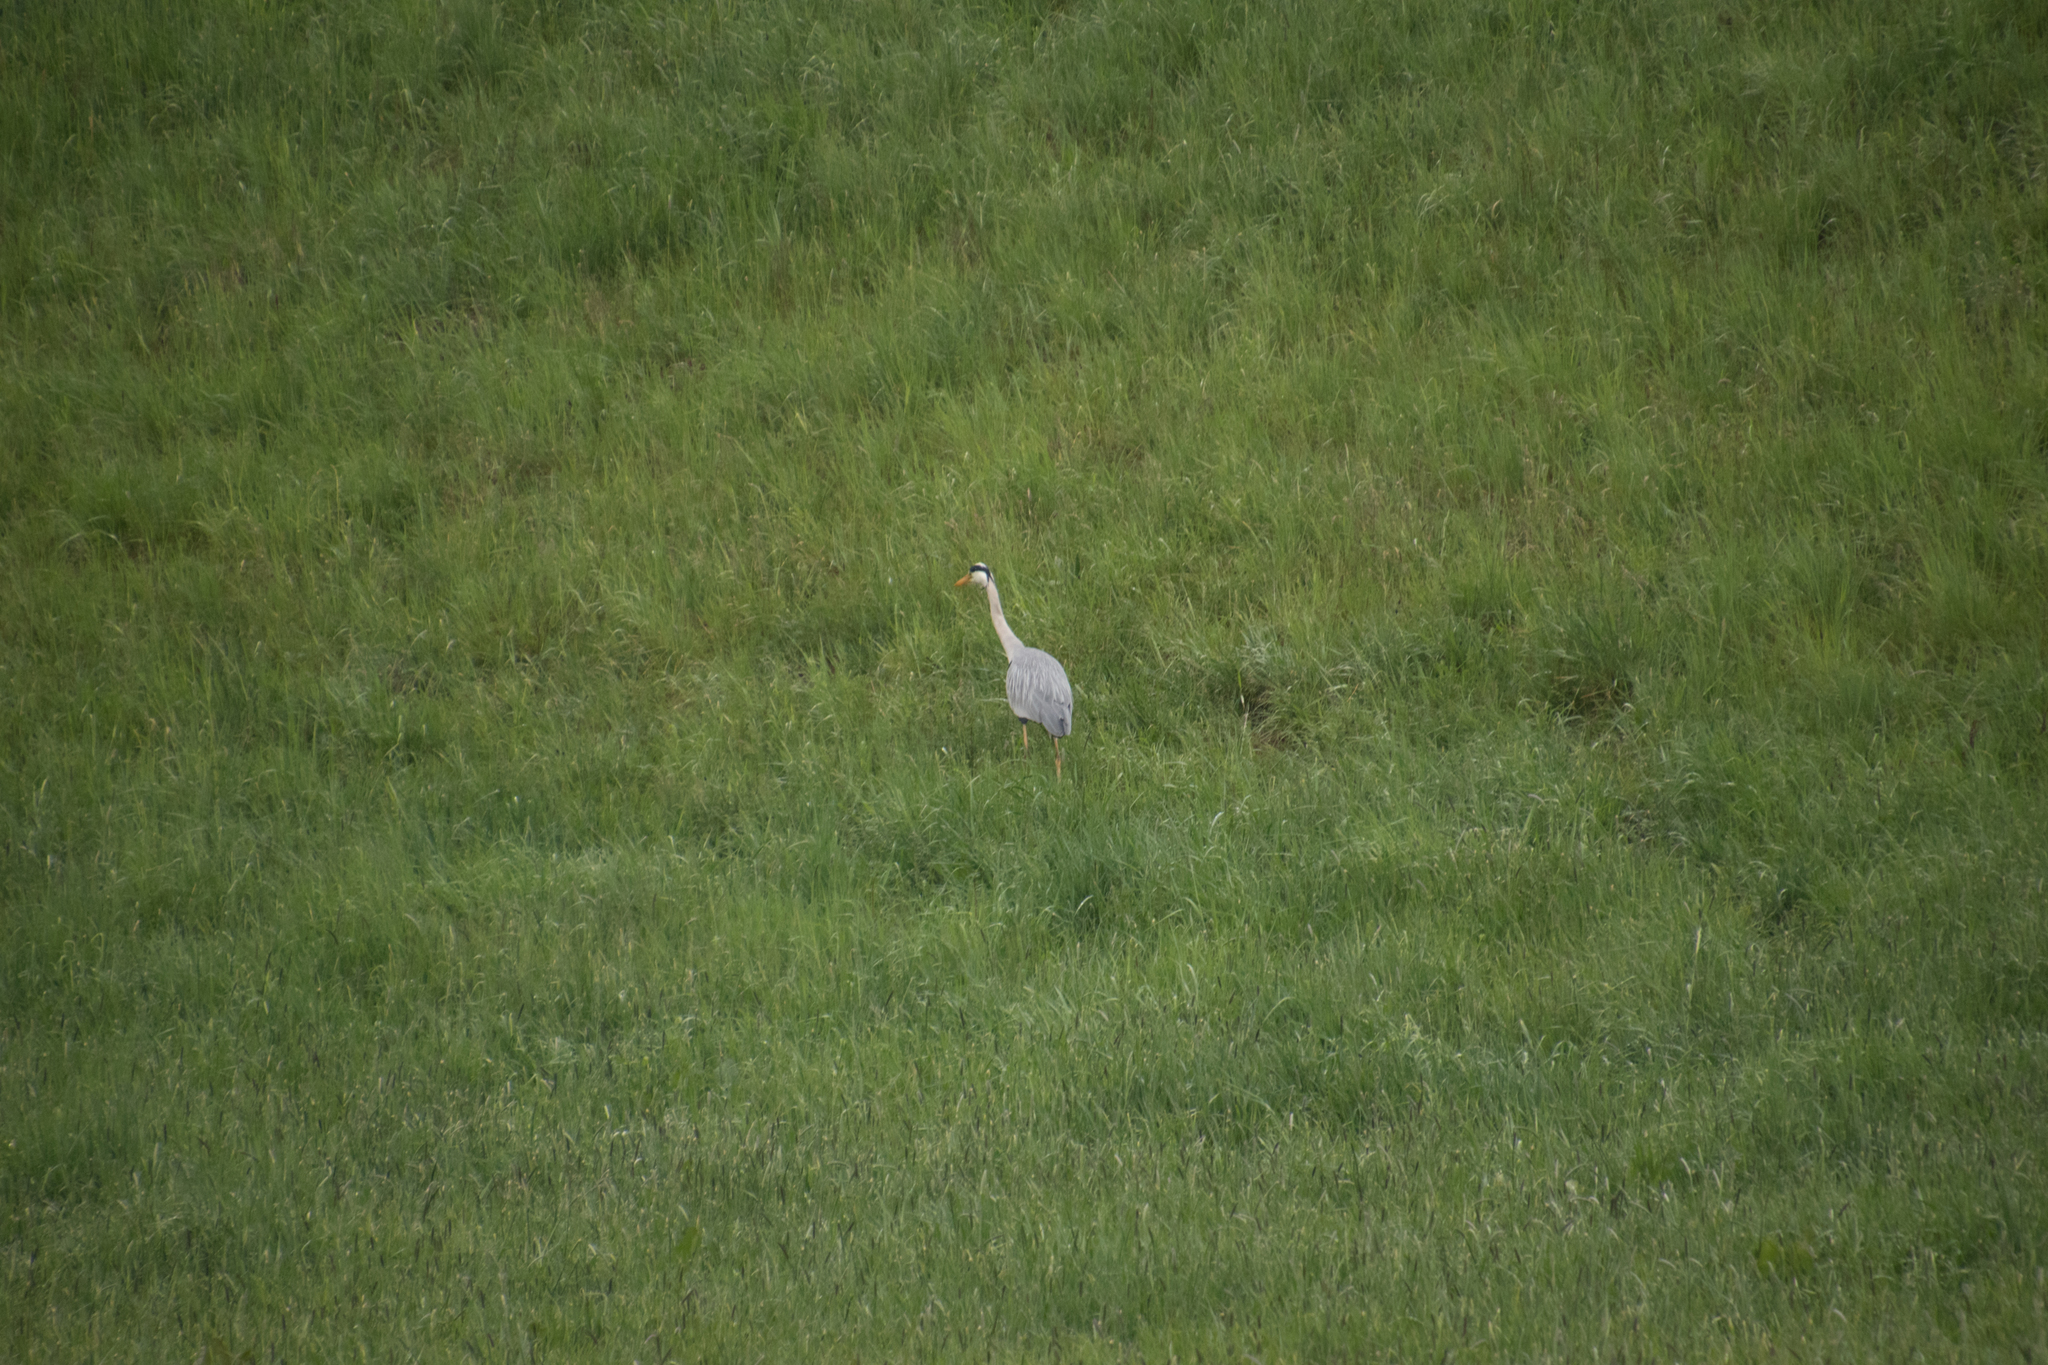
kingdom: Animalia
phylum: Chordata
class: Aves
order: Pelecaniformes
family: Ardeidae
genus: Ardea
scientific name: Ardea cinerea
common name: Grey heron
